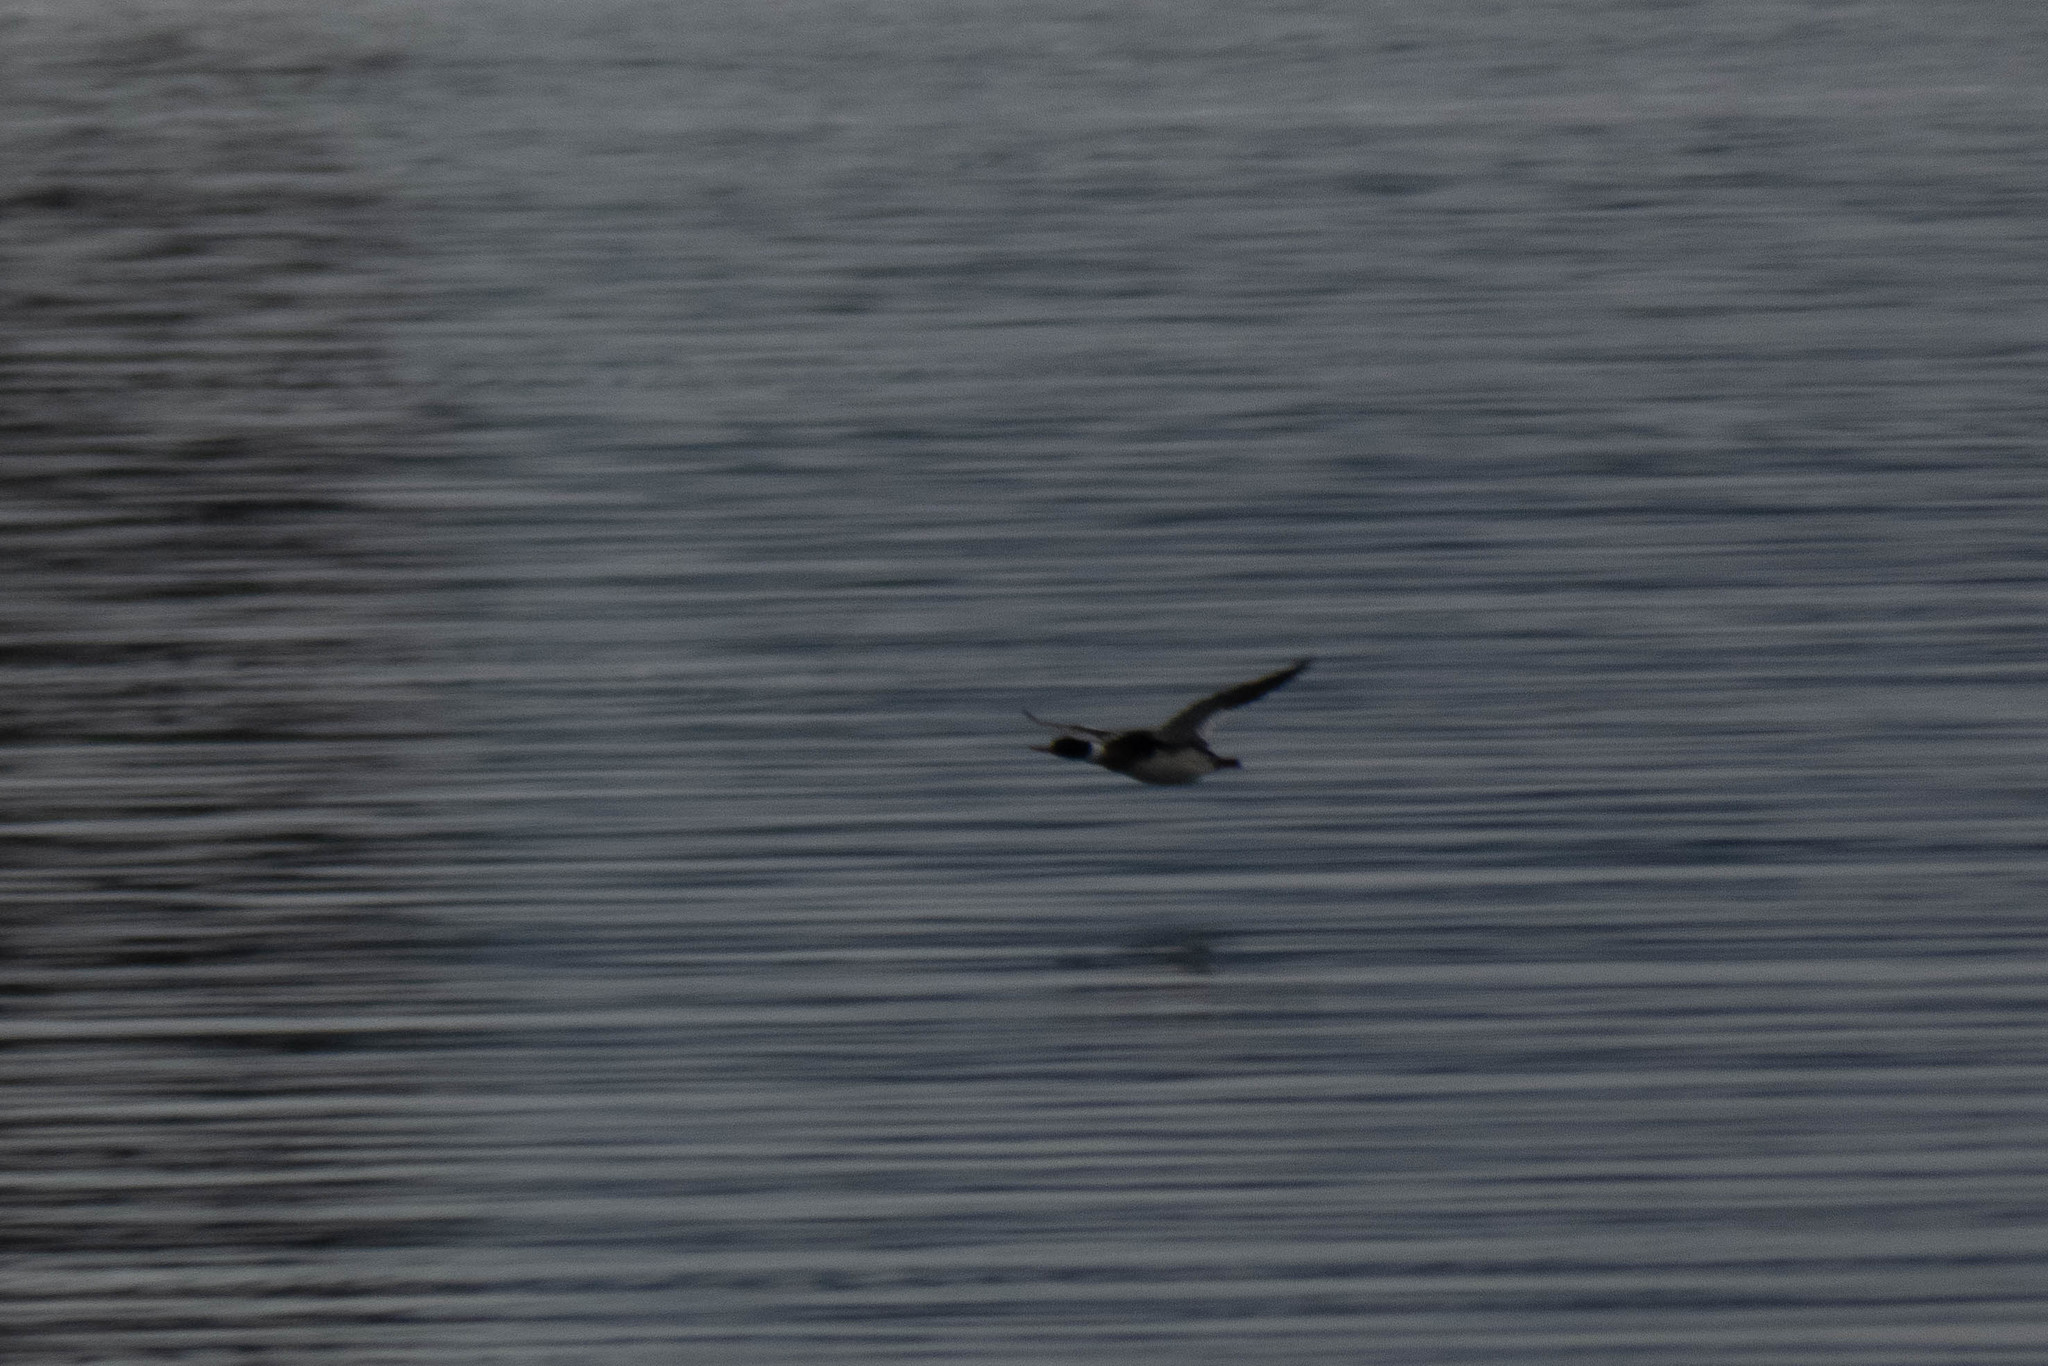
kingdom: Animalia
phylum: Chordata
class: Aves
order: Anseriformes
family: Anatidae
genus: Mergus
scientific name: Mergus serrator
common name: Red-breasted merganser
